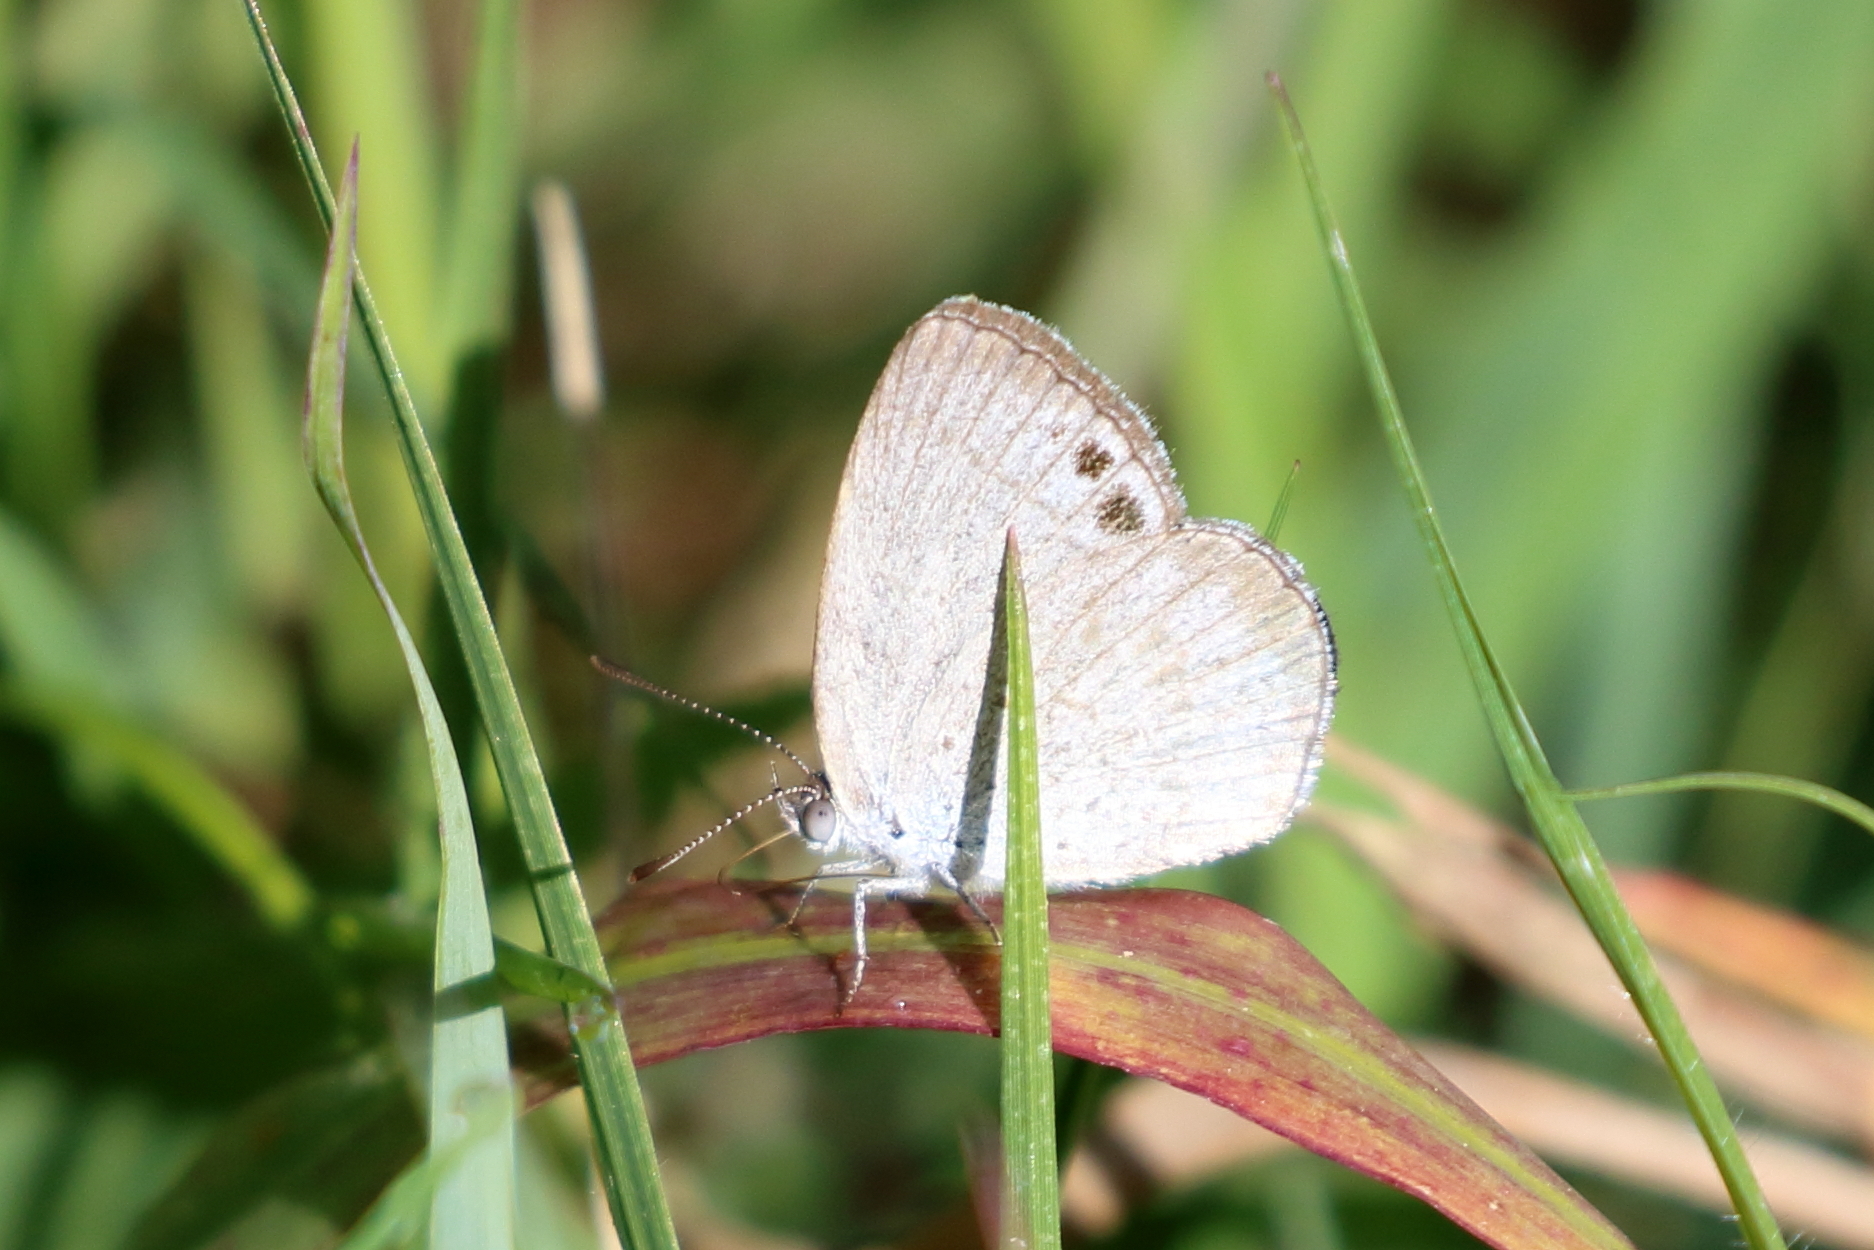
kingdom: Animalia
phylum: Arthropoda
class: Insecta
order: Lepidoptera
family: Lycaenidae
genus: Candalides
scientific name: Candalides
